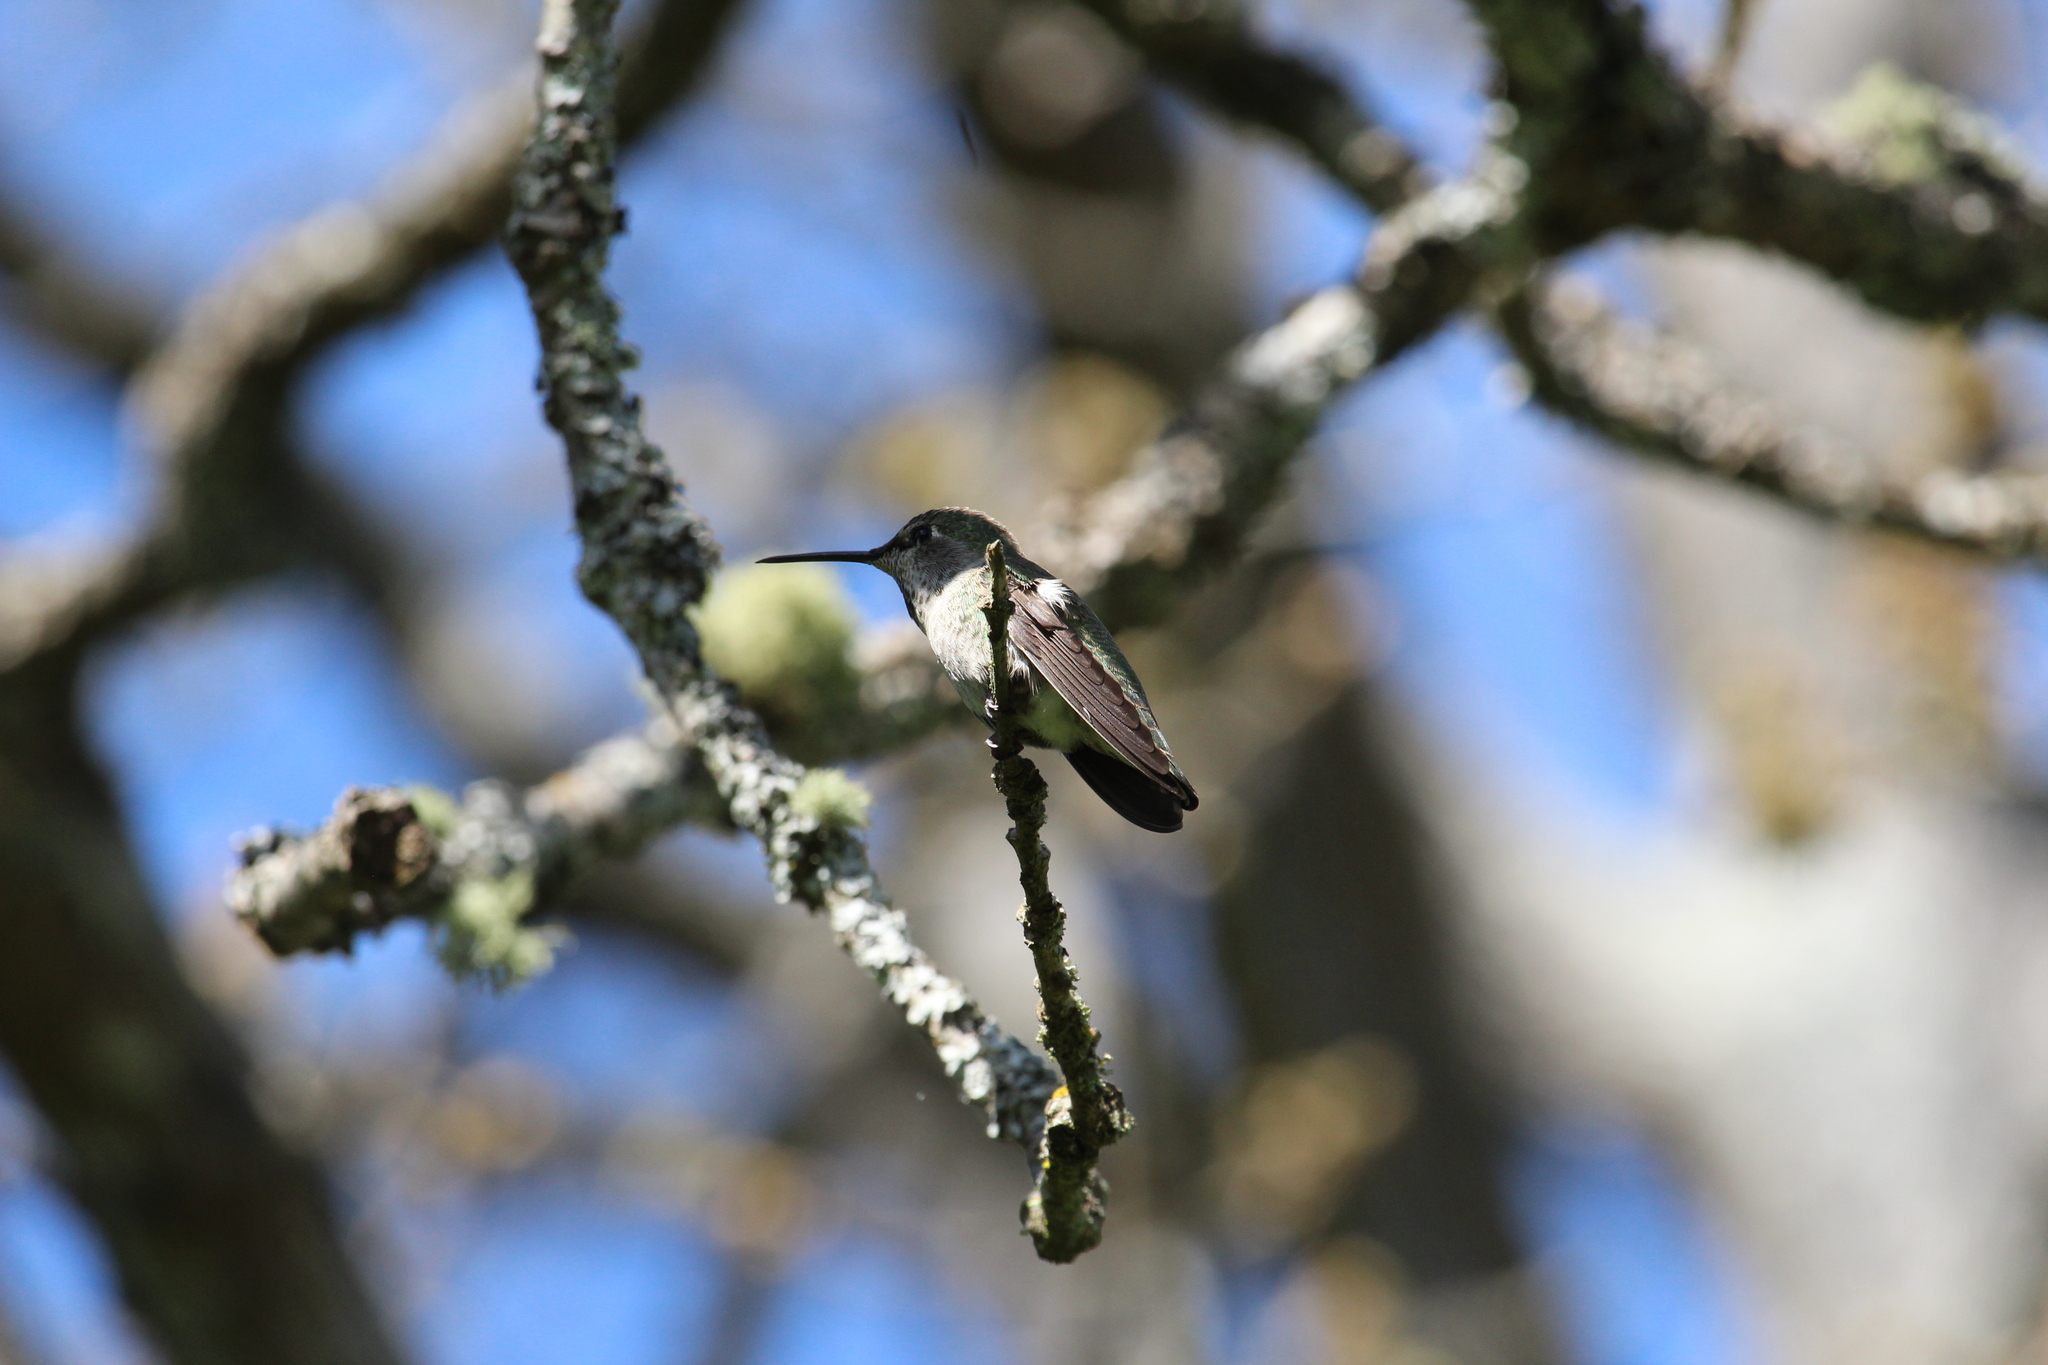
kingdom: Animalia
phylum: Chordata
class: Aves
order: Apodiformes
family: Trochilidae
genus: Calypte
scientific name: Calypte anna
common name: Anna's hummingbird
